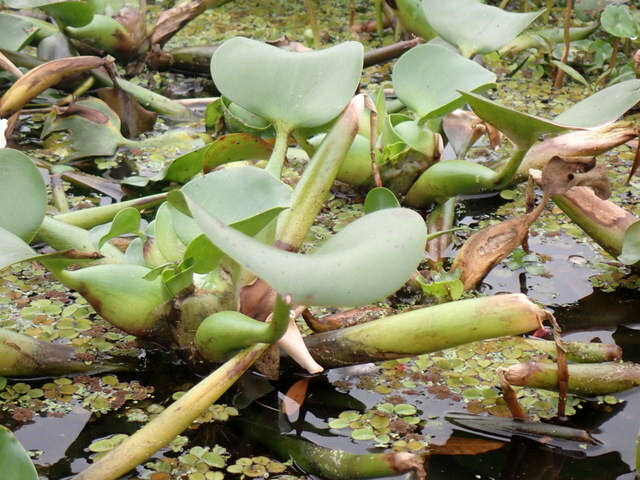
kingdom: Plantae
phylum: Tracheophyta
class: Liliopsida
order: Commelinales
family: Pontederiaceae
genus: Pontederia
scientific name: Pontederia crassipes
